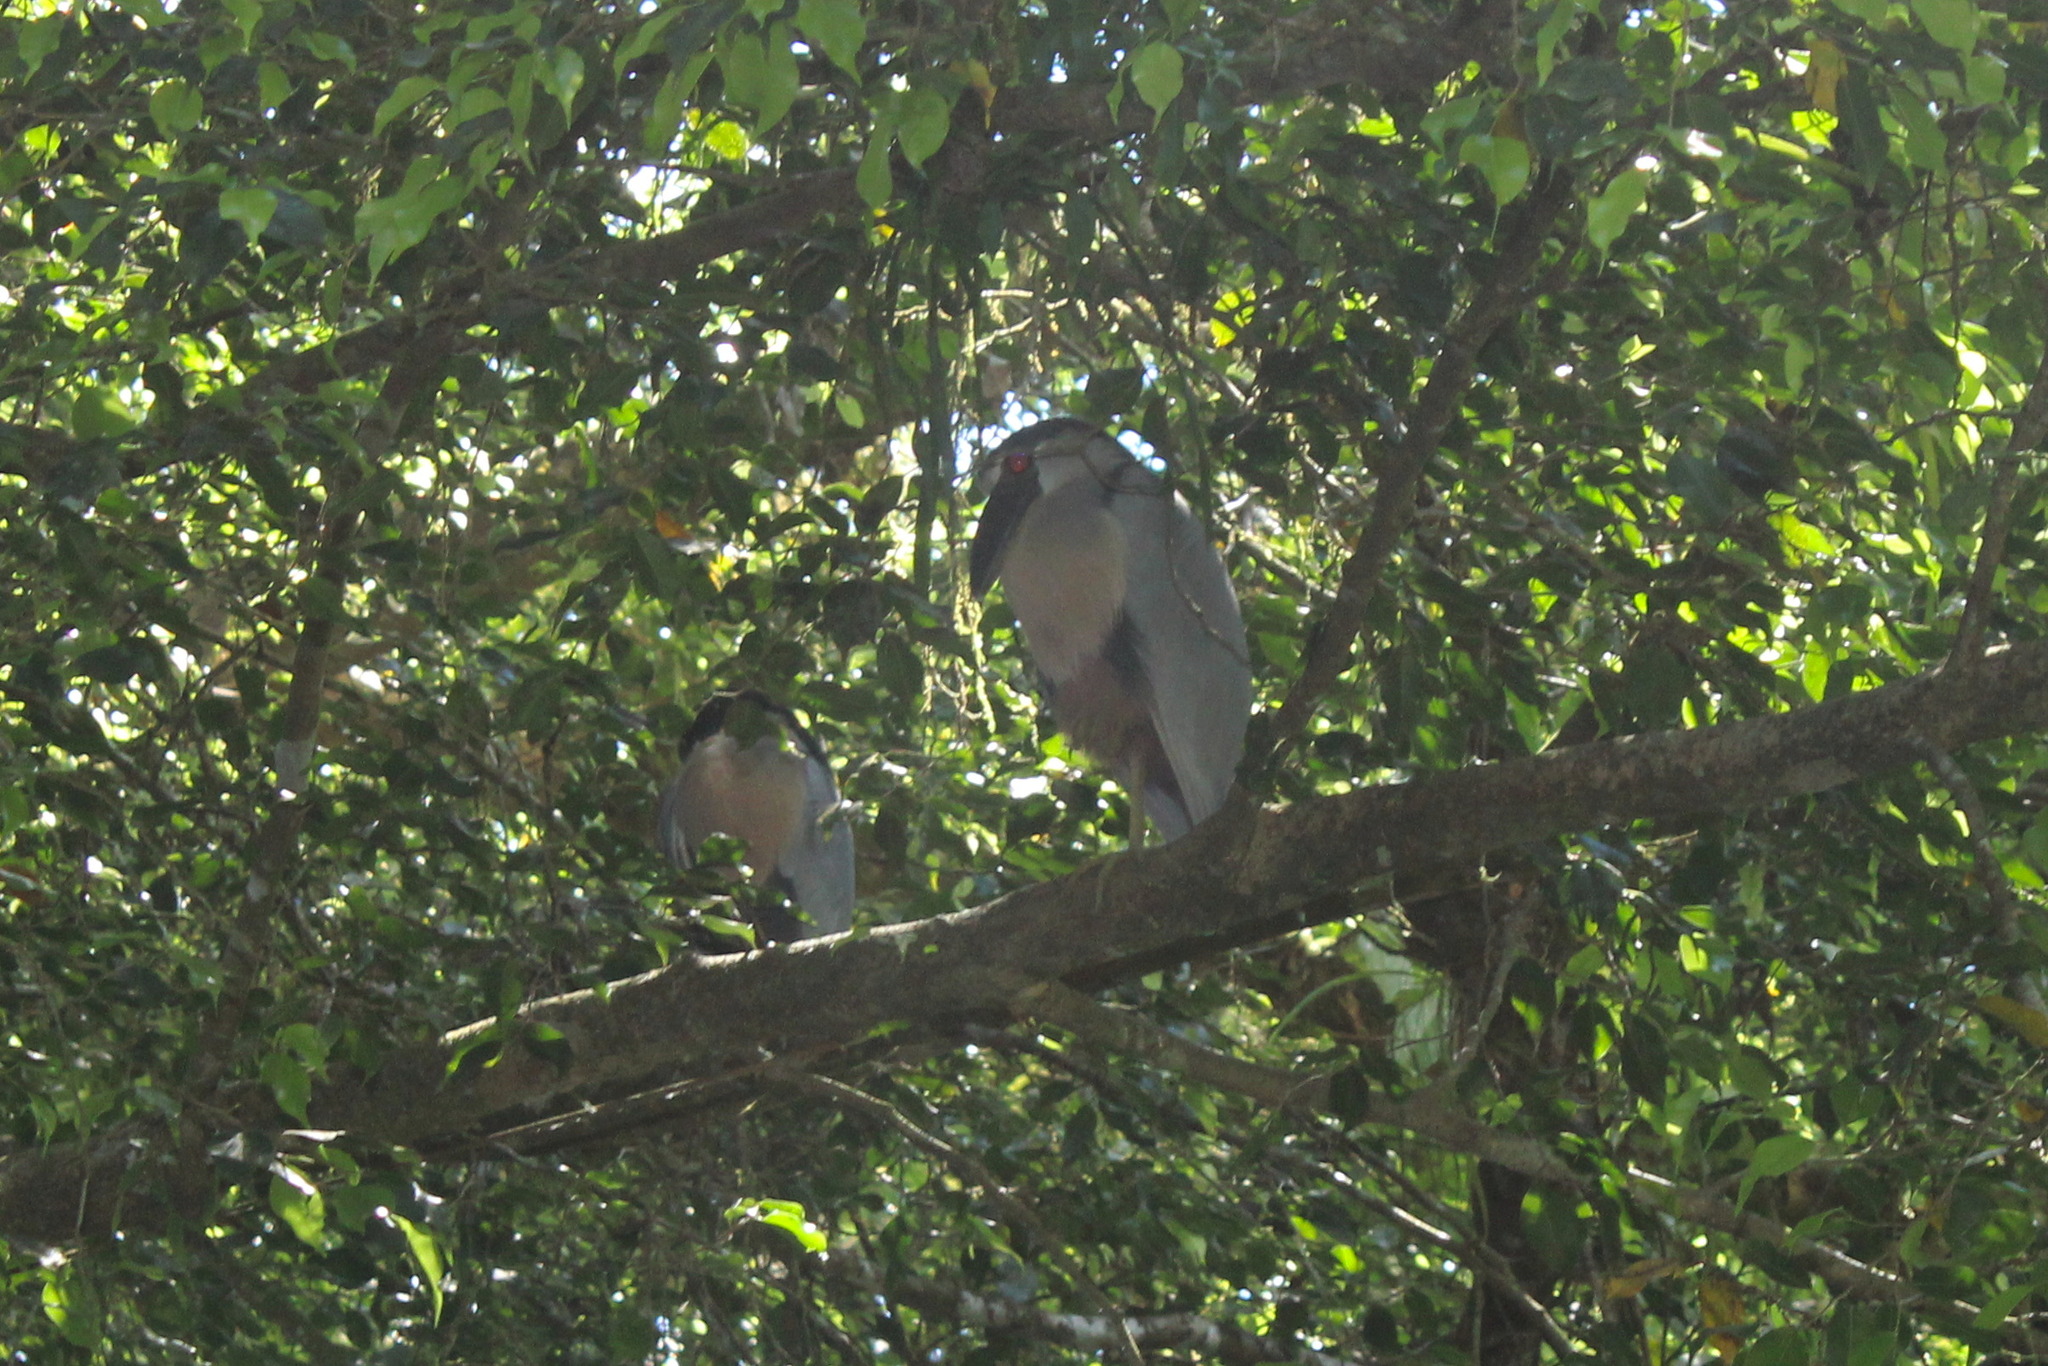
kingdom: Animalia
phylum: Chordata
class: Aves
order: Pelecaniformes
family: Ardeidae
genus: Cochlearius
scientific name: Cochlearius cochlearius
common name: Boat-billed heron
